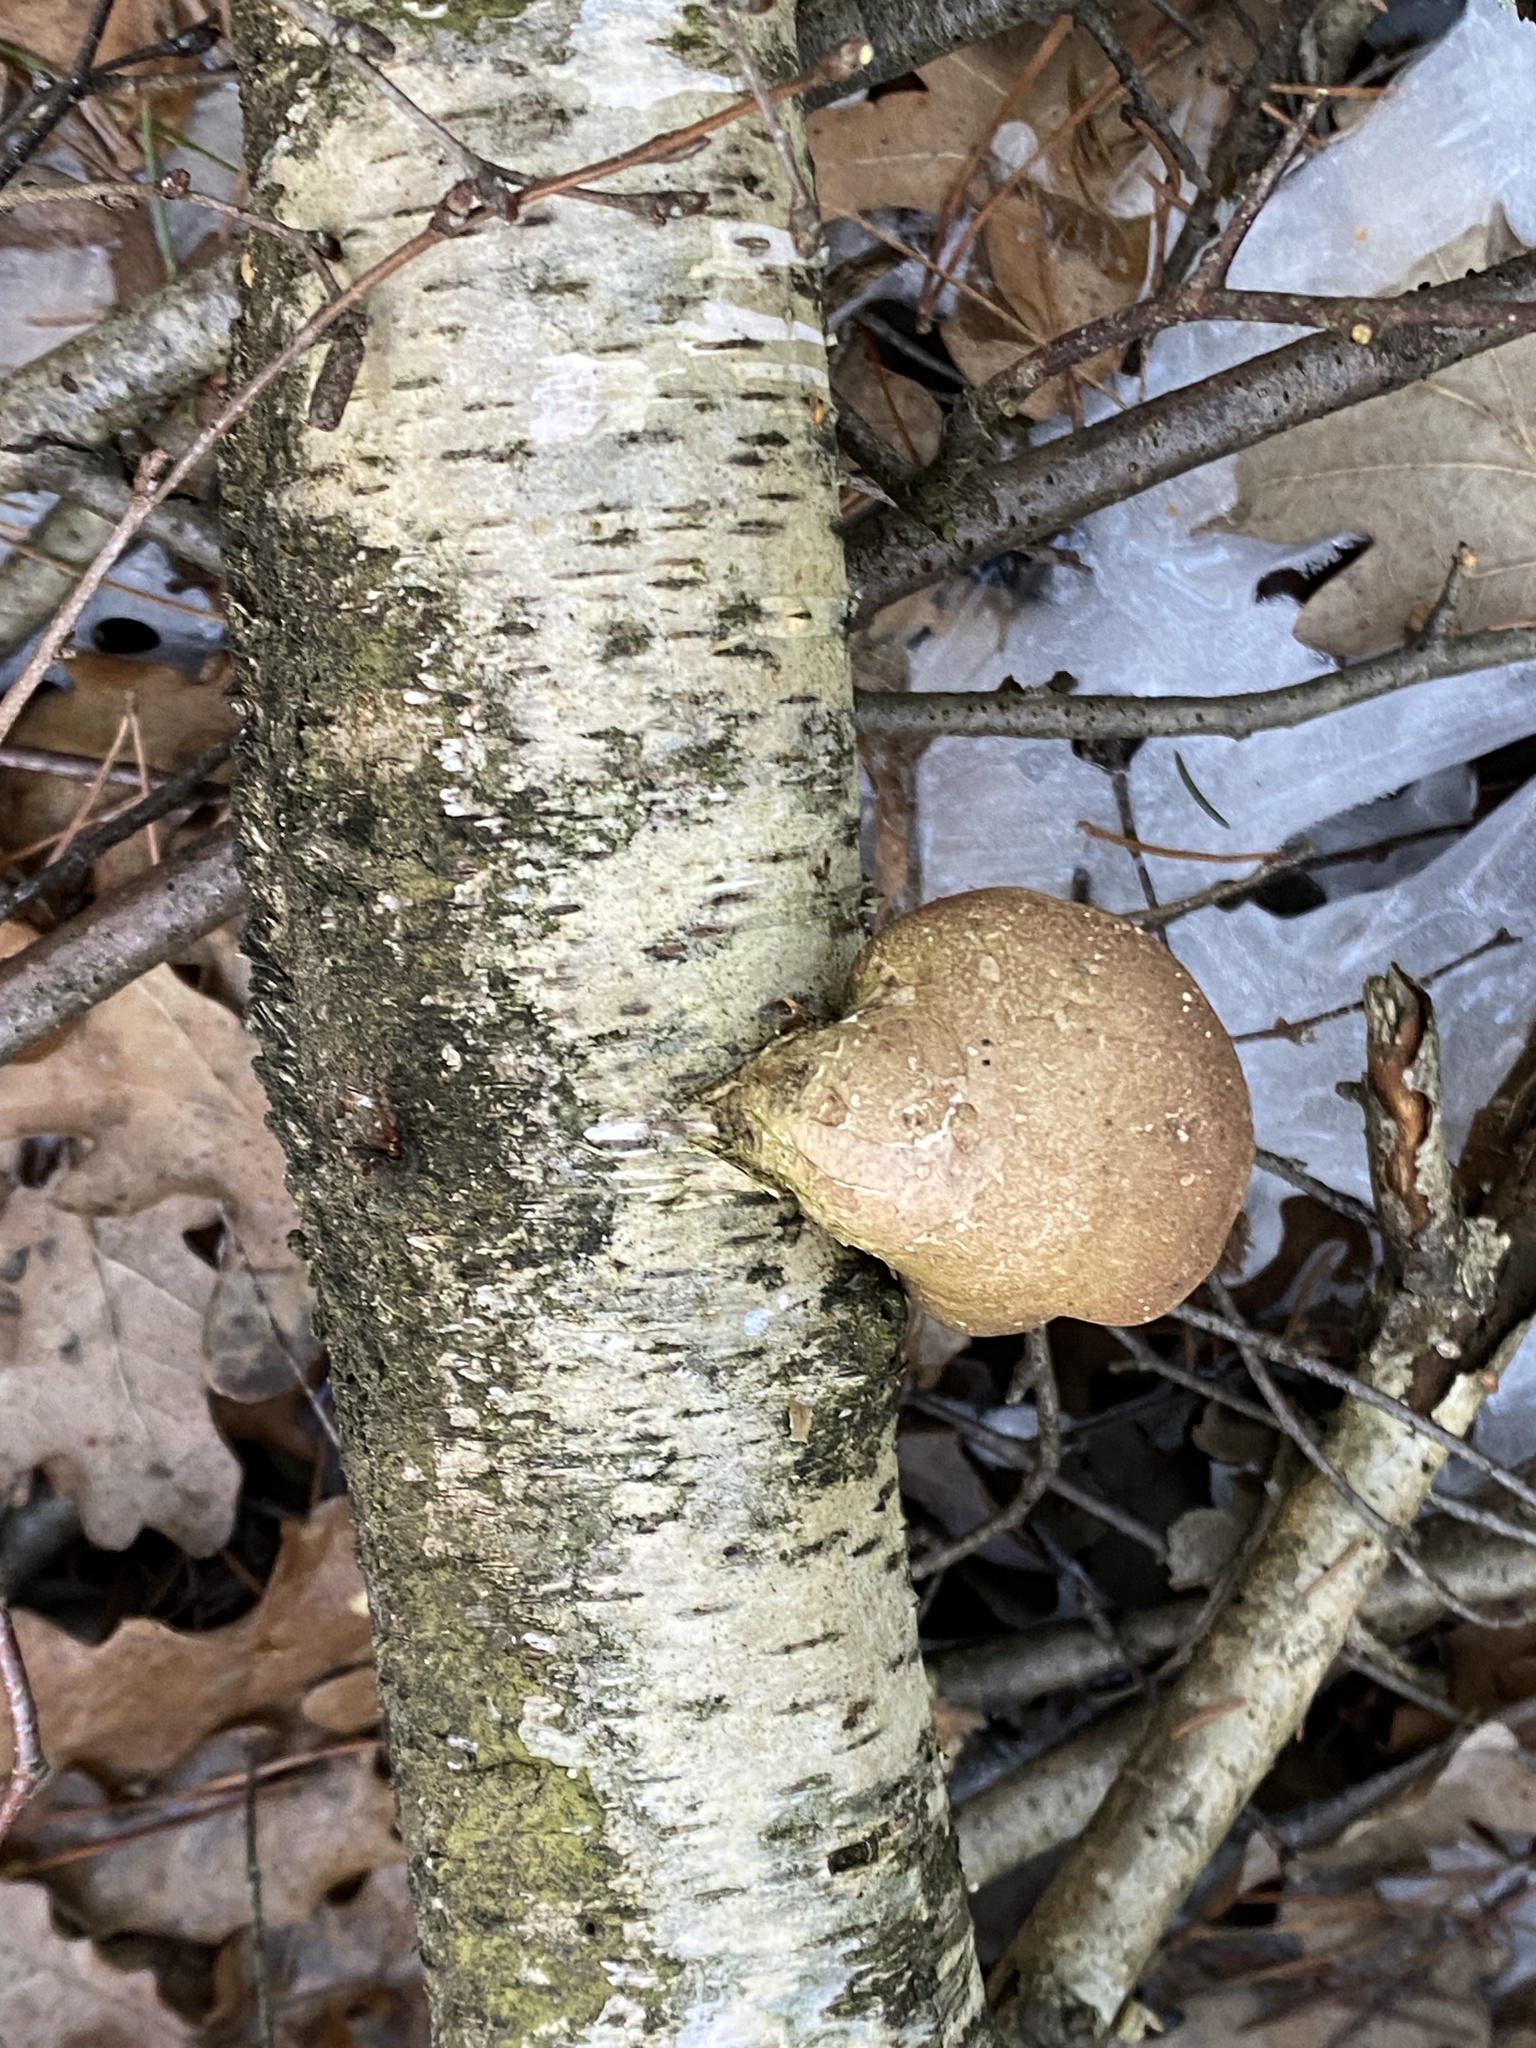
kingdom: Fungi
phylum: Basidiomycota
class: Agaricomycetes
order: Polyporales
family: Fomitopsidaceae
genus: Fomitopsis
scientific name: Fomitopsis betulina
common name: Birch polypore
